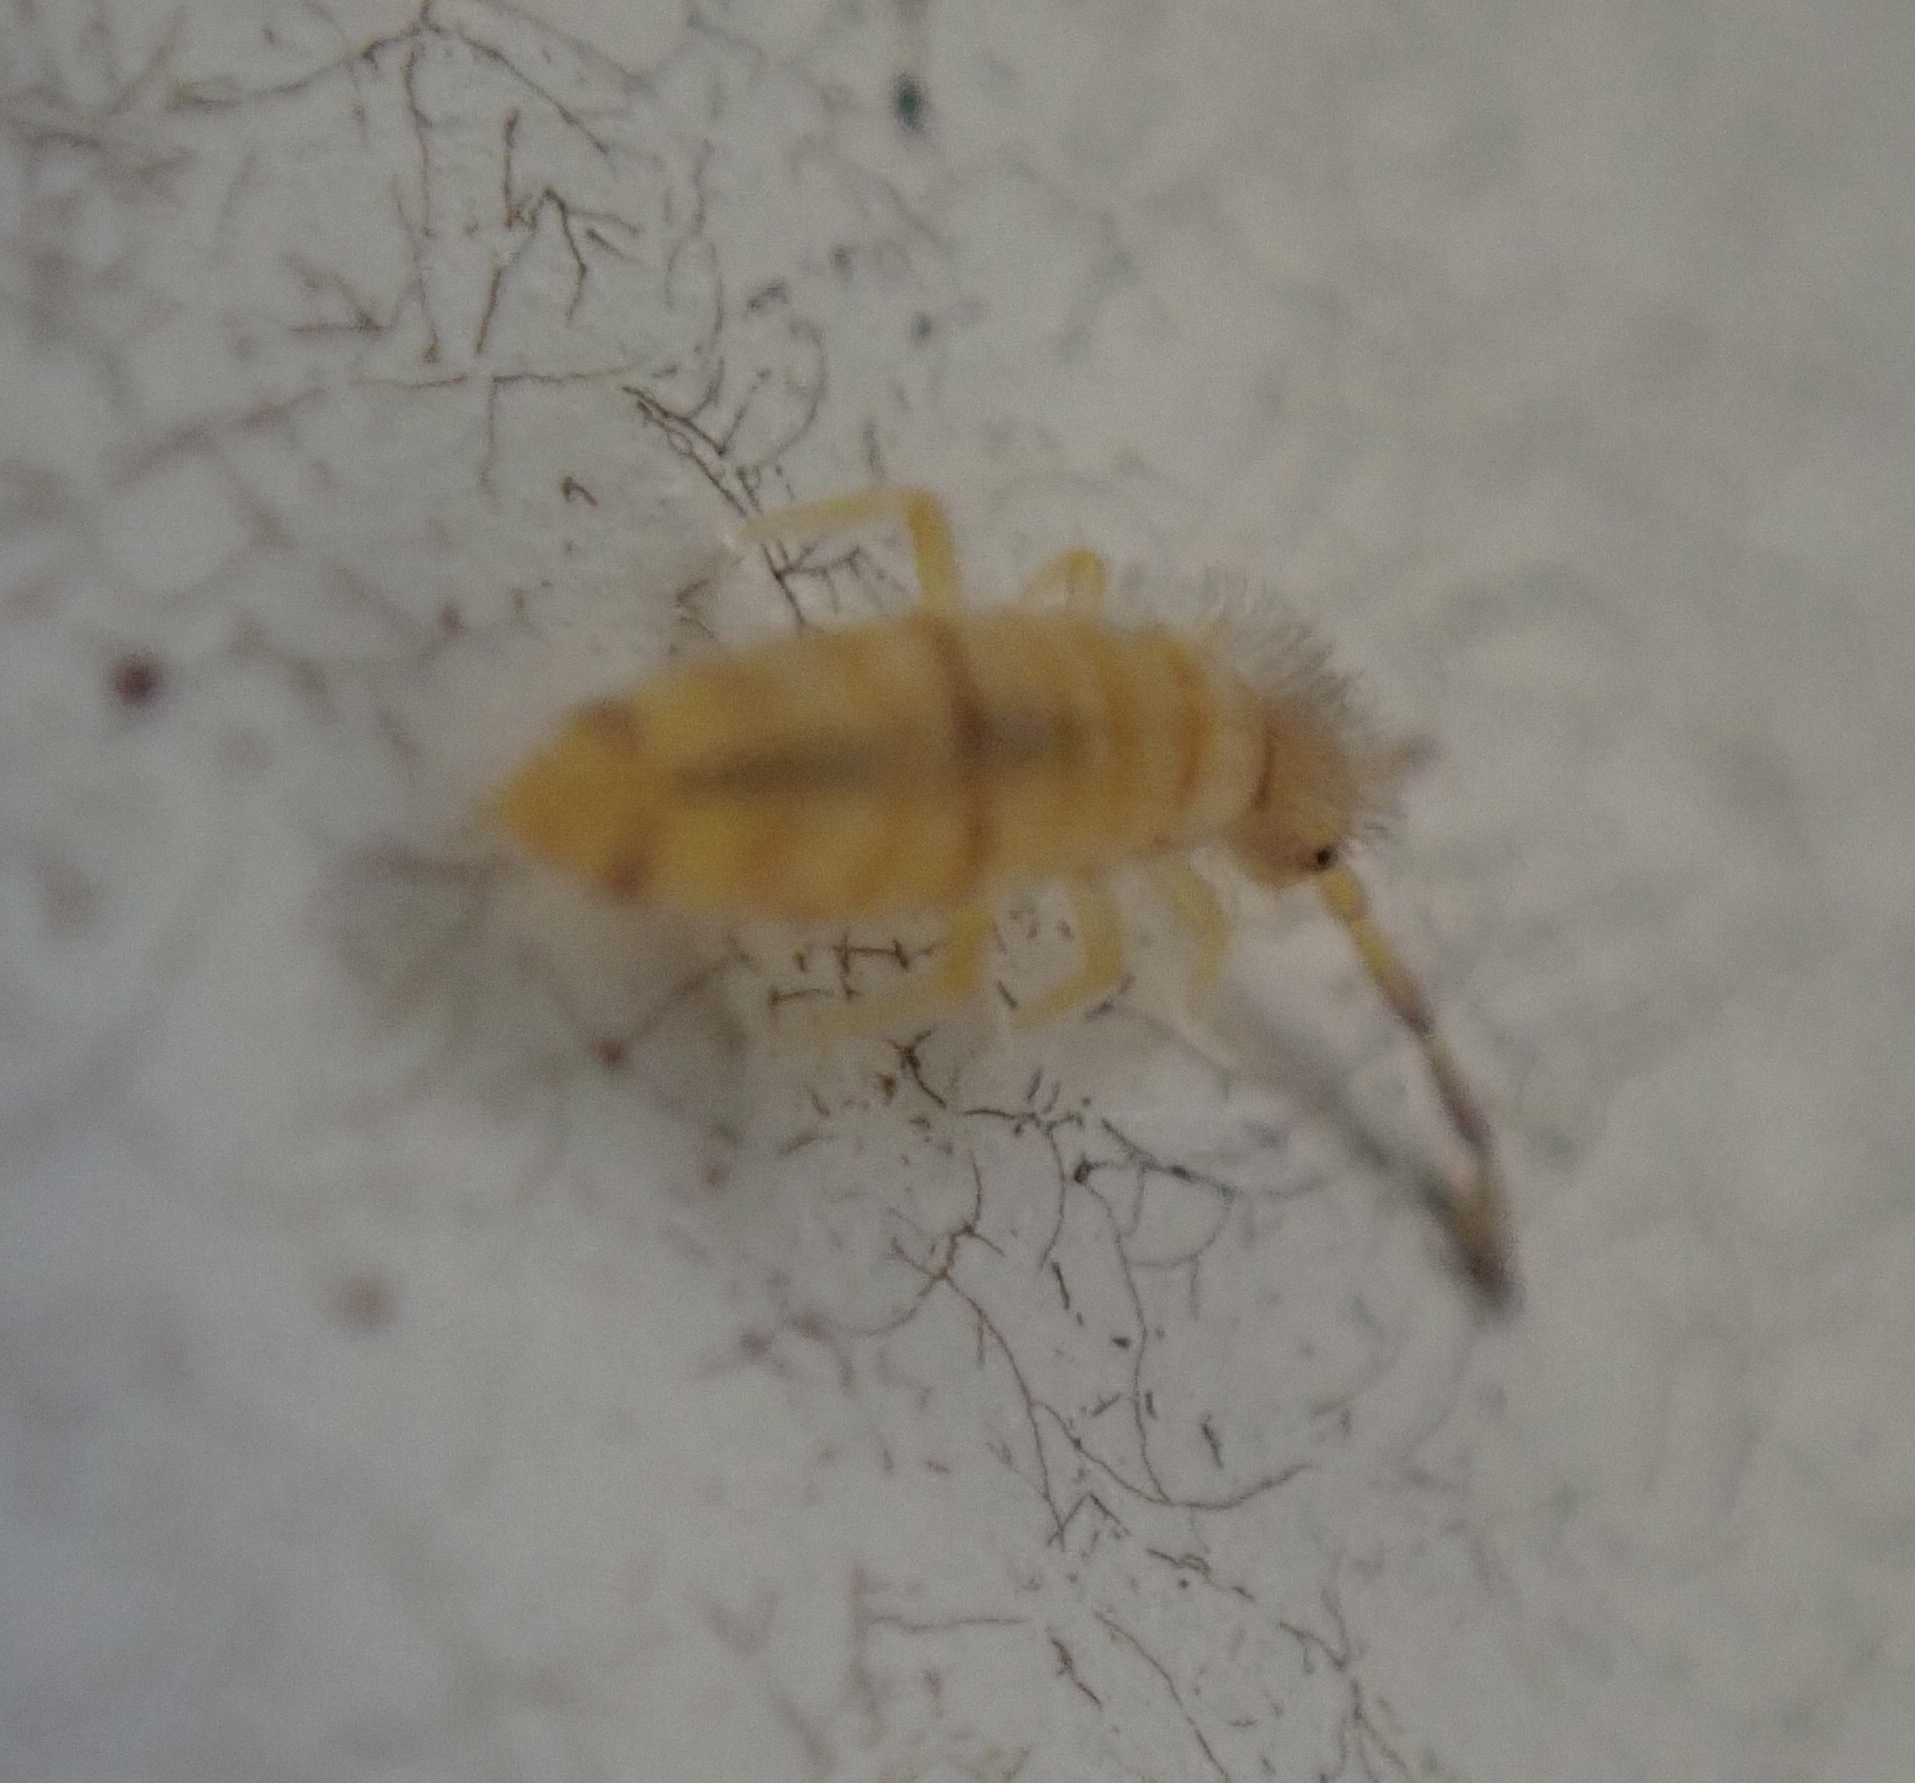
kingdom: Animalia
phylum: Arthropoda
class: Collembola
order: Entomobryomorpha
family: Entomobryidae
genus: Entomobrya
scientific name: Entomobrya atrocincta
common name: Springtail
